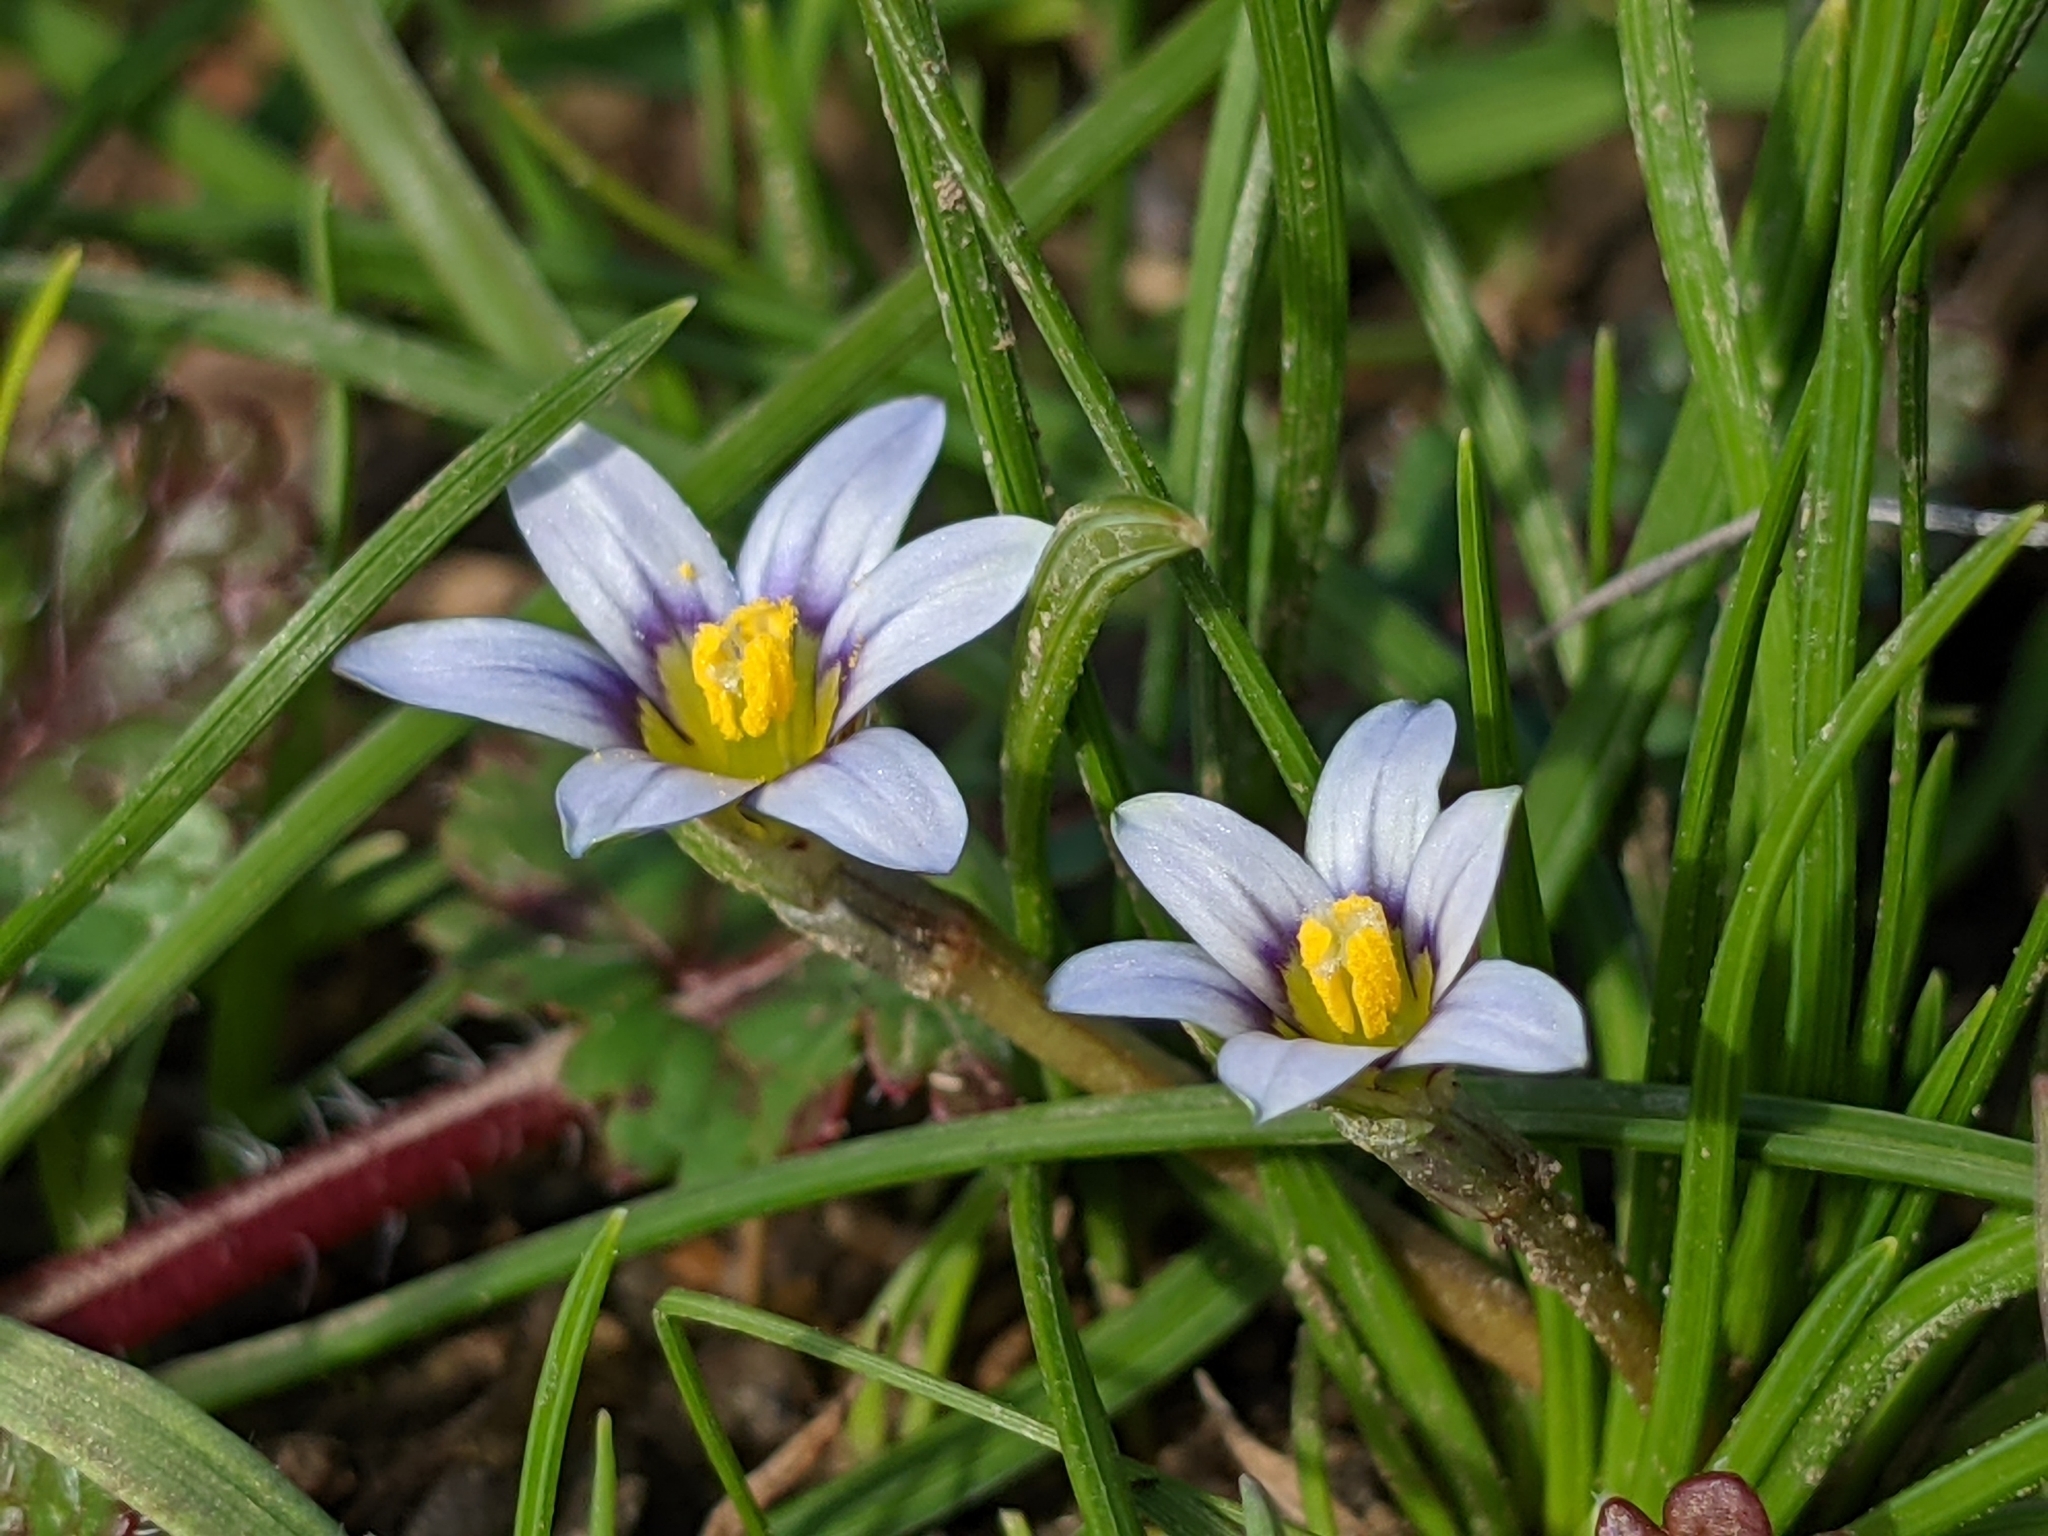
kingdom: Plantae
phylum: Tracheophyta
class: Liliopsida
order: Asparagales
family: Iridaceae
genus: Romulea
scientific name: Romulea minutiflora
